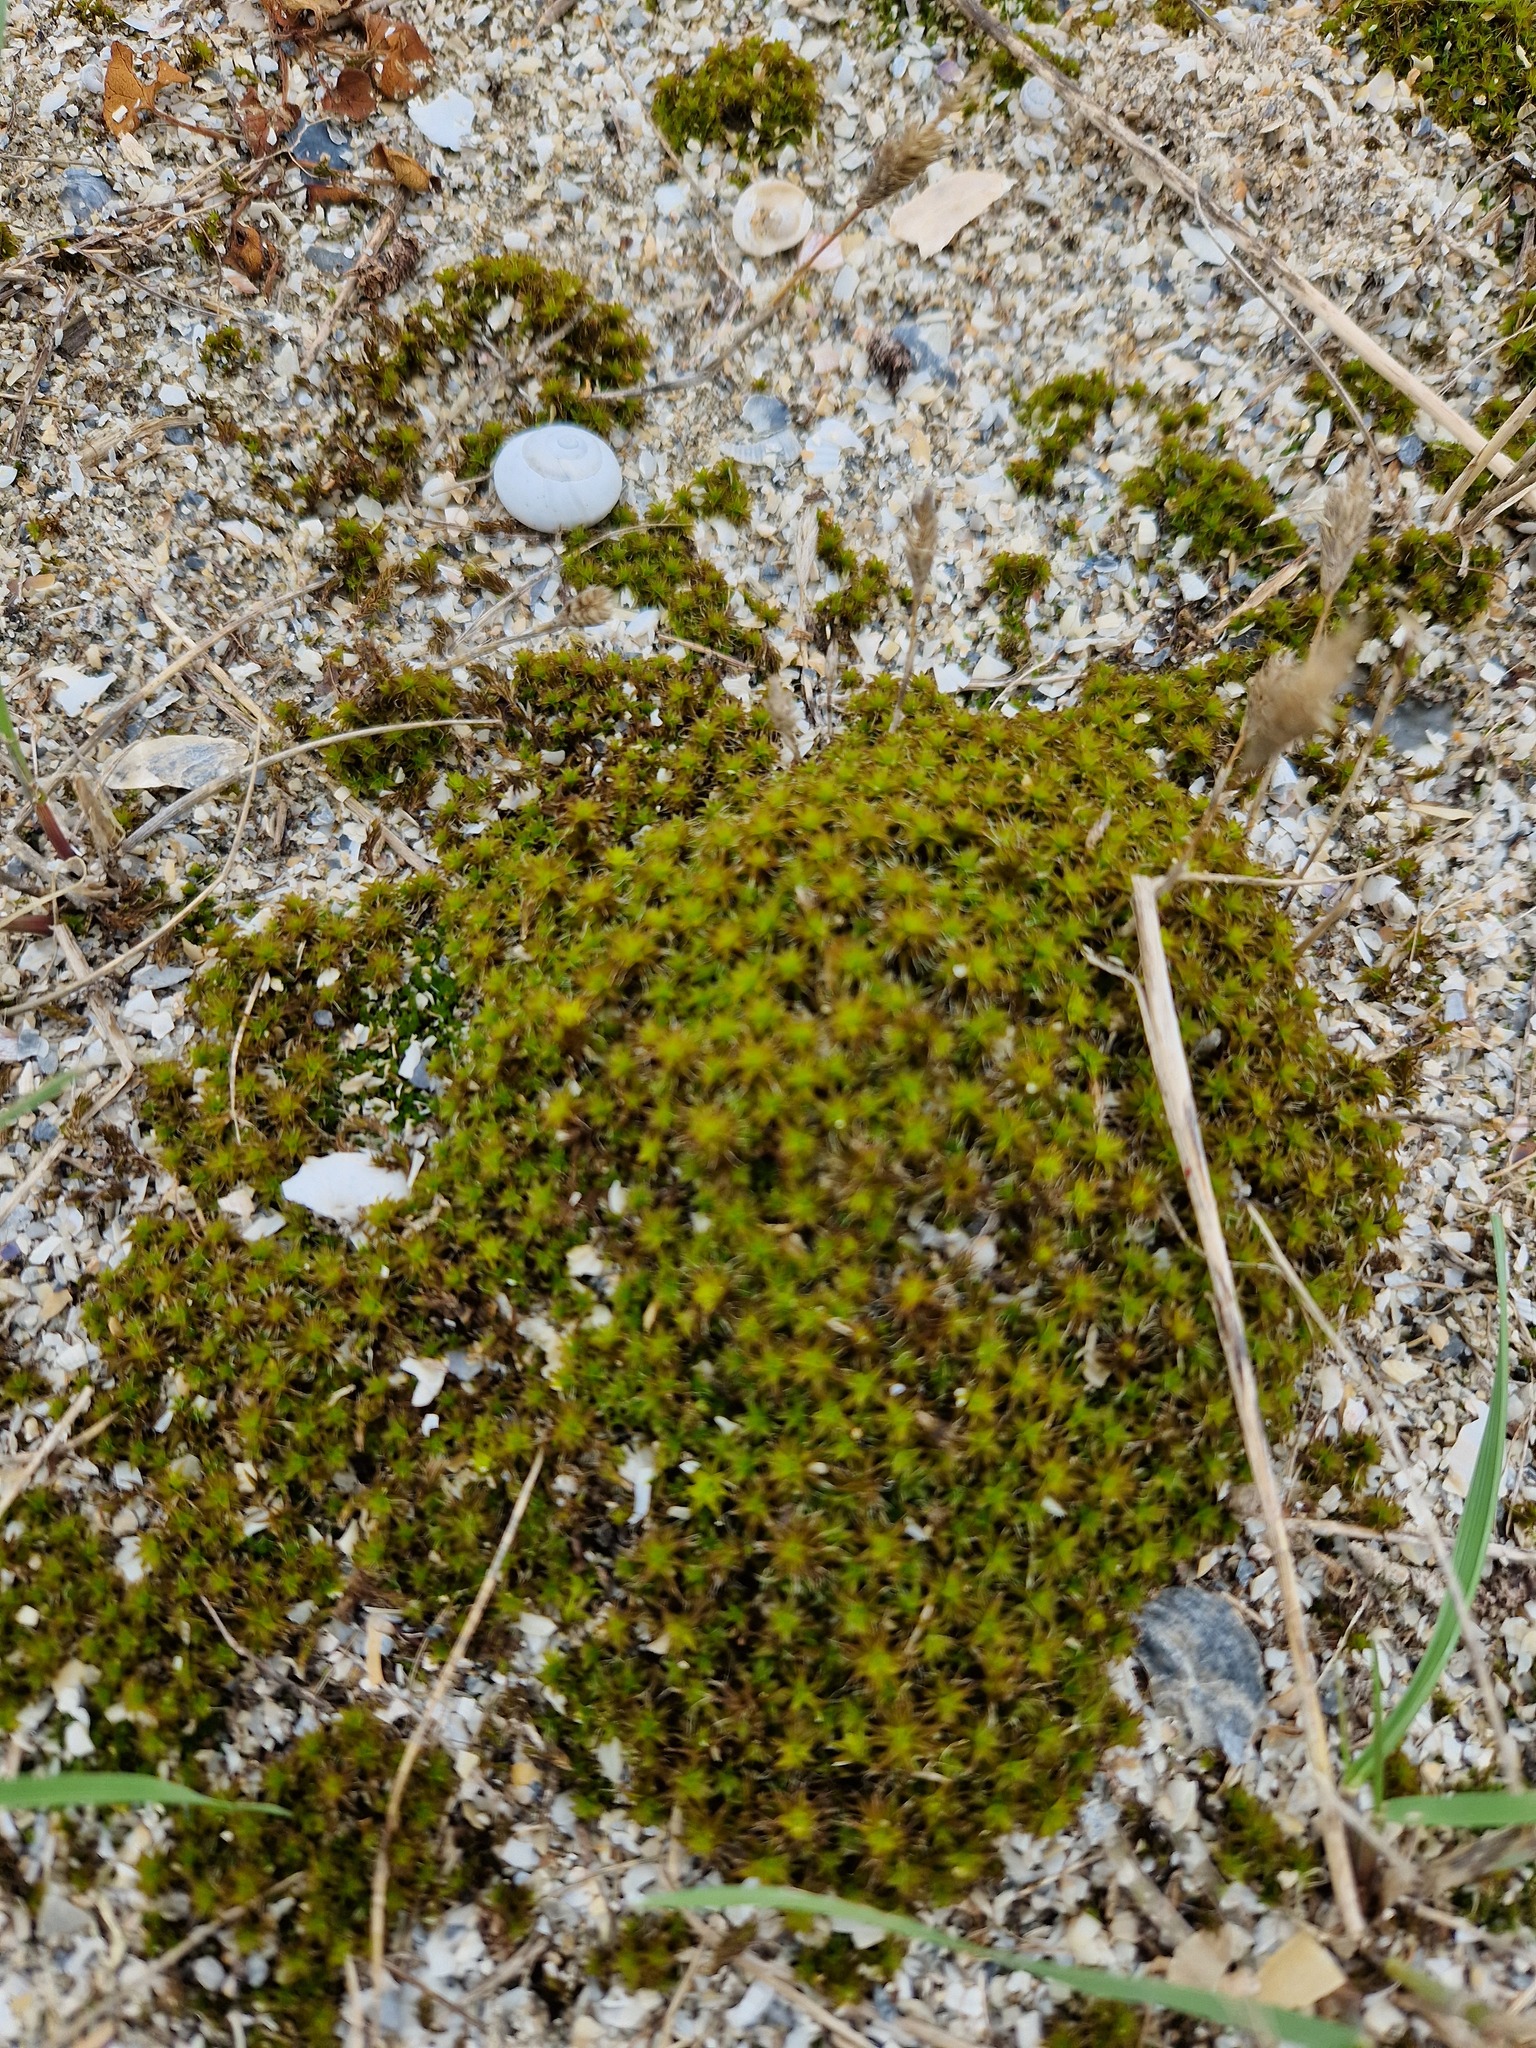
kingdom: Plantae
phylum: Bryophyta
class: Bryopsida
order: Pottiales
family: Pottiaceae
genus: Syntrichia
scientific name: Syntrichia ruralis
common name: Sidewalk screw moss
